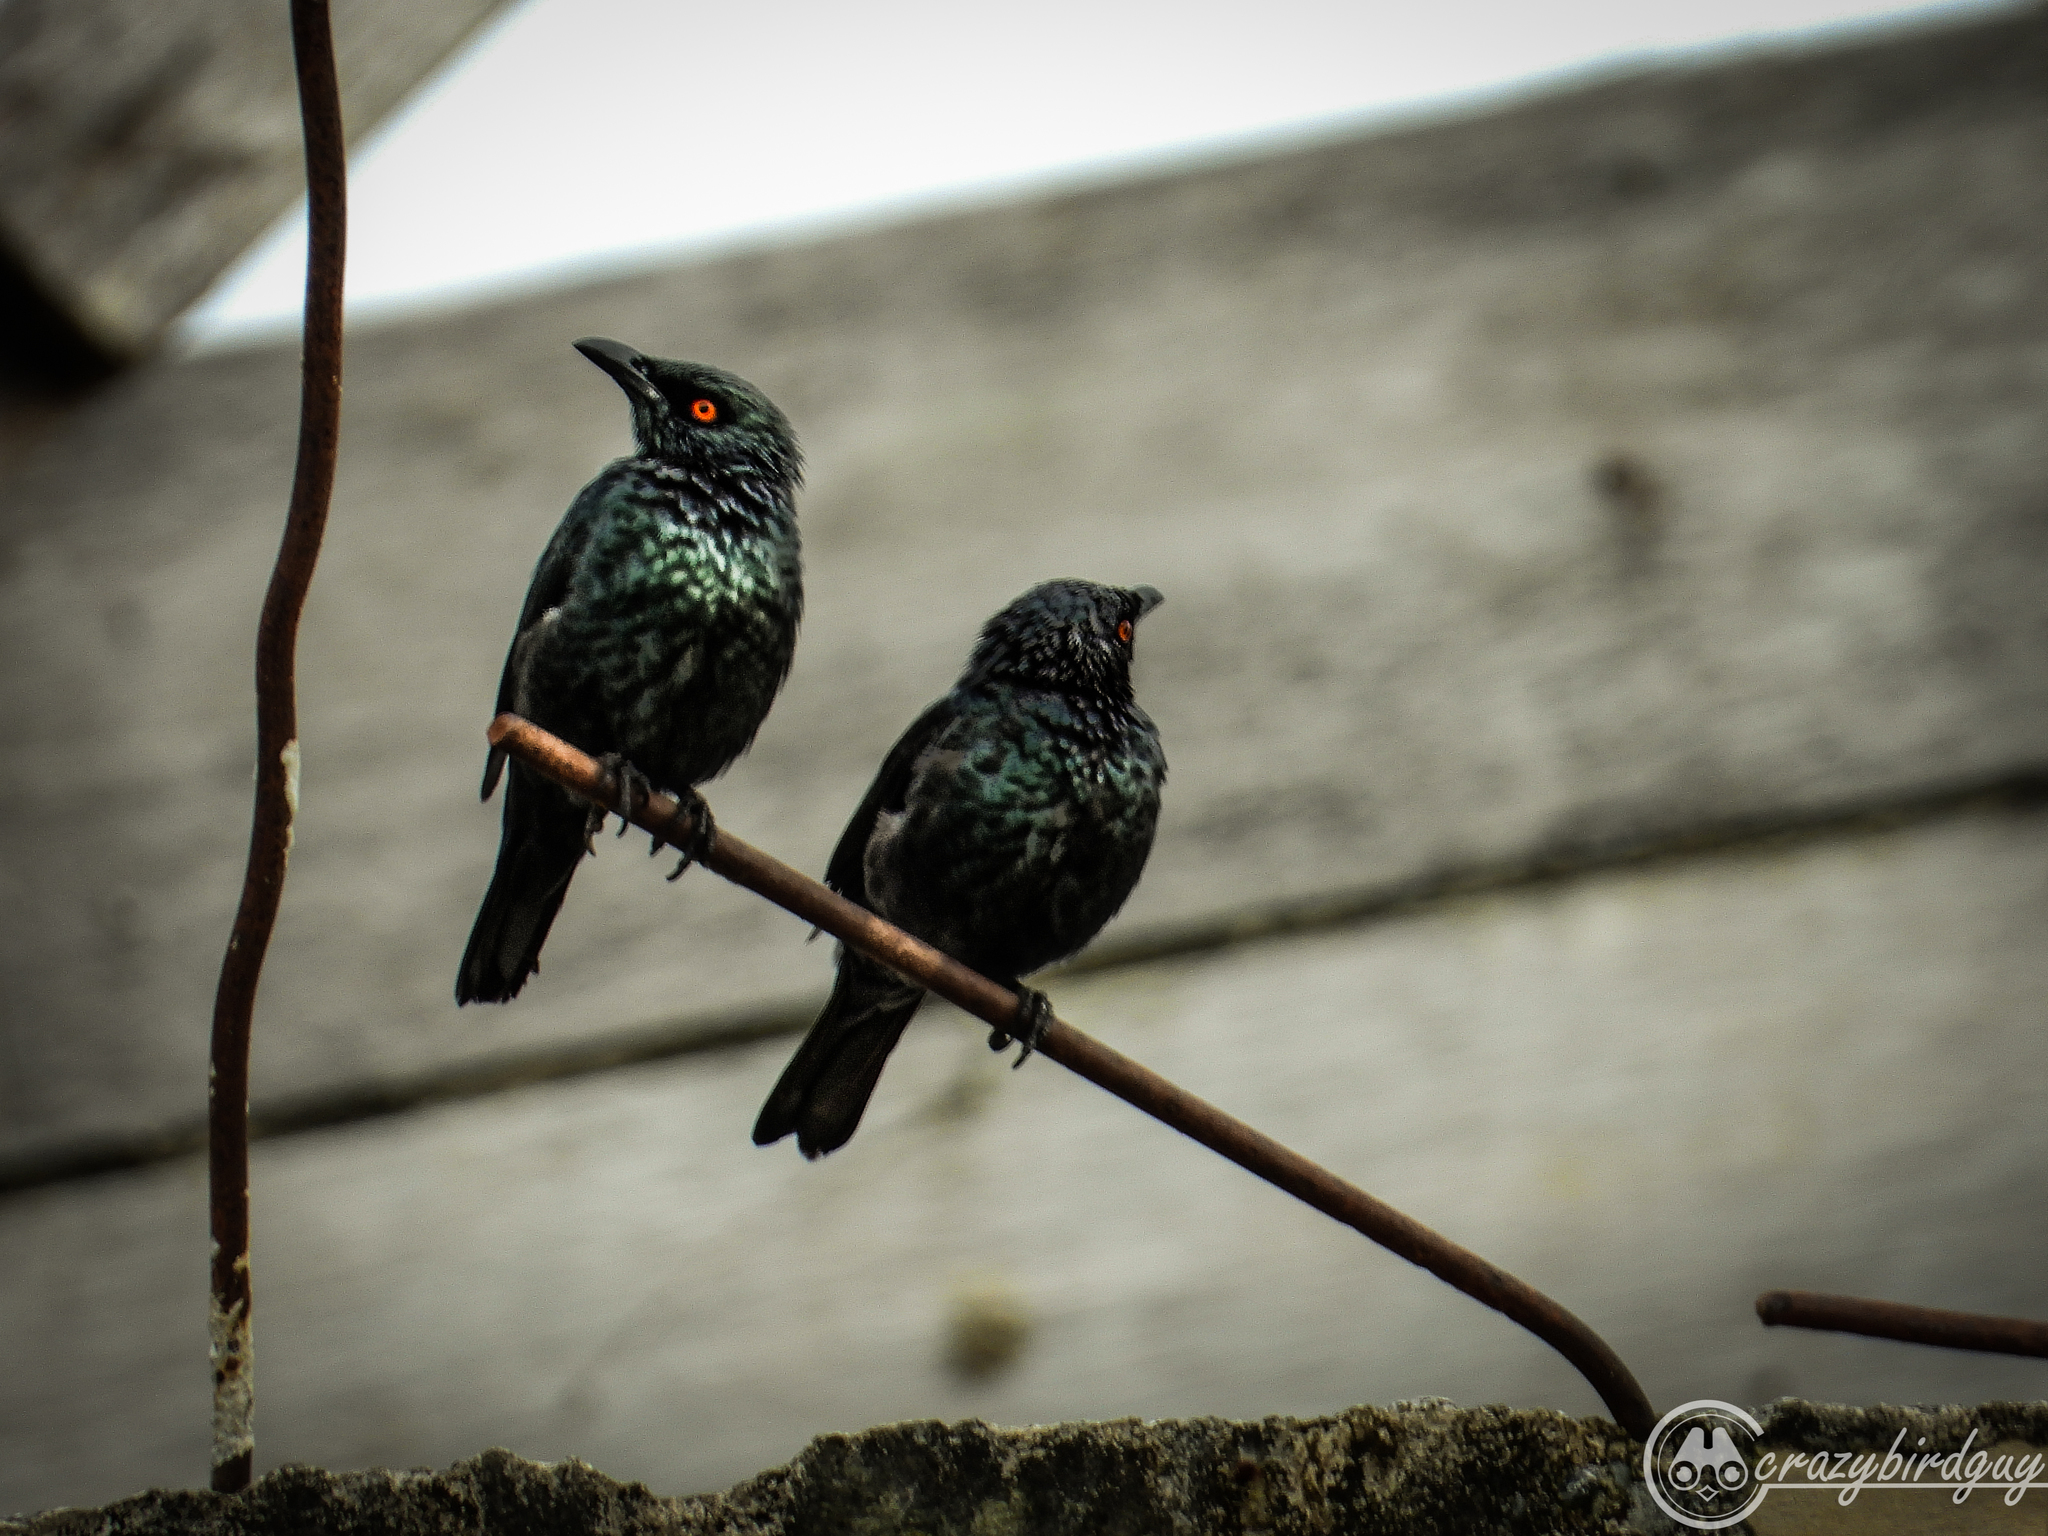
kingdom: Animalia
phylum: Chordata
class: Aves
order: Passeriformes
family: Sturnidae
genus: Aplonis
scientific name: Aplonis cantoroides
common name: Singing starling
